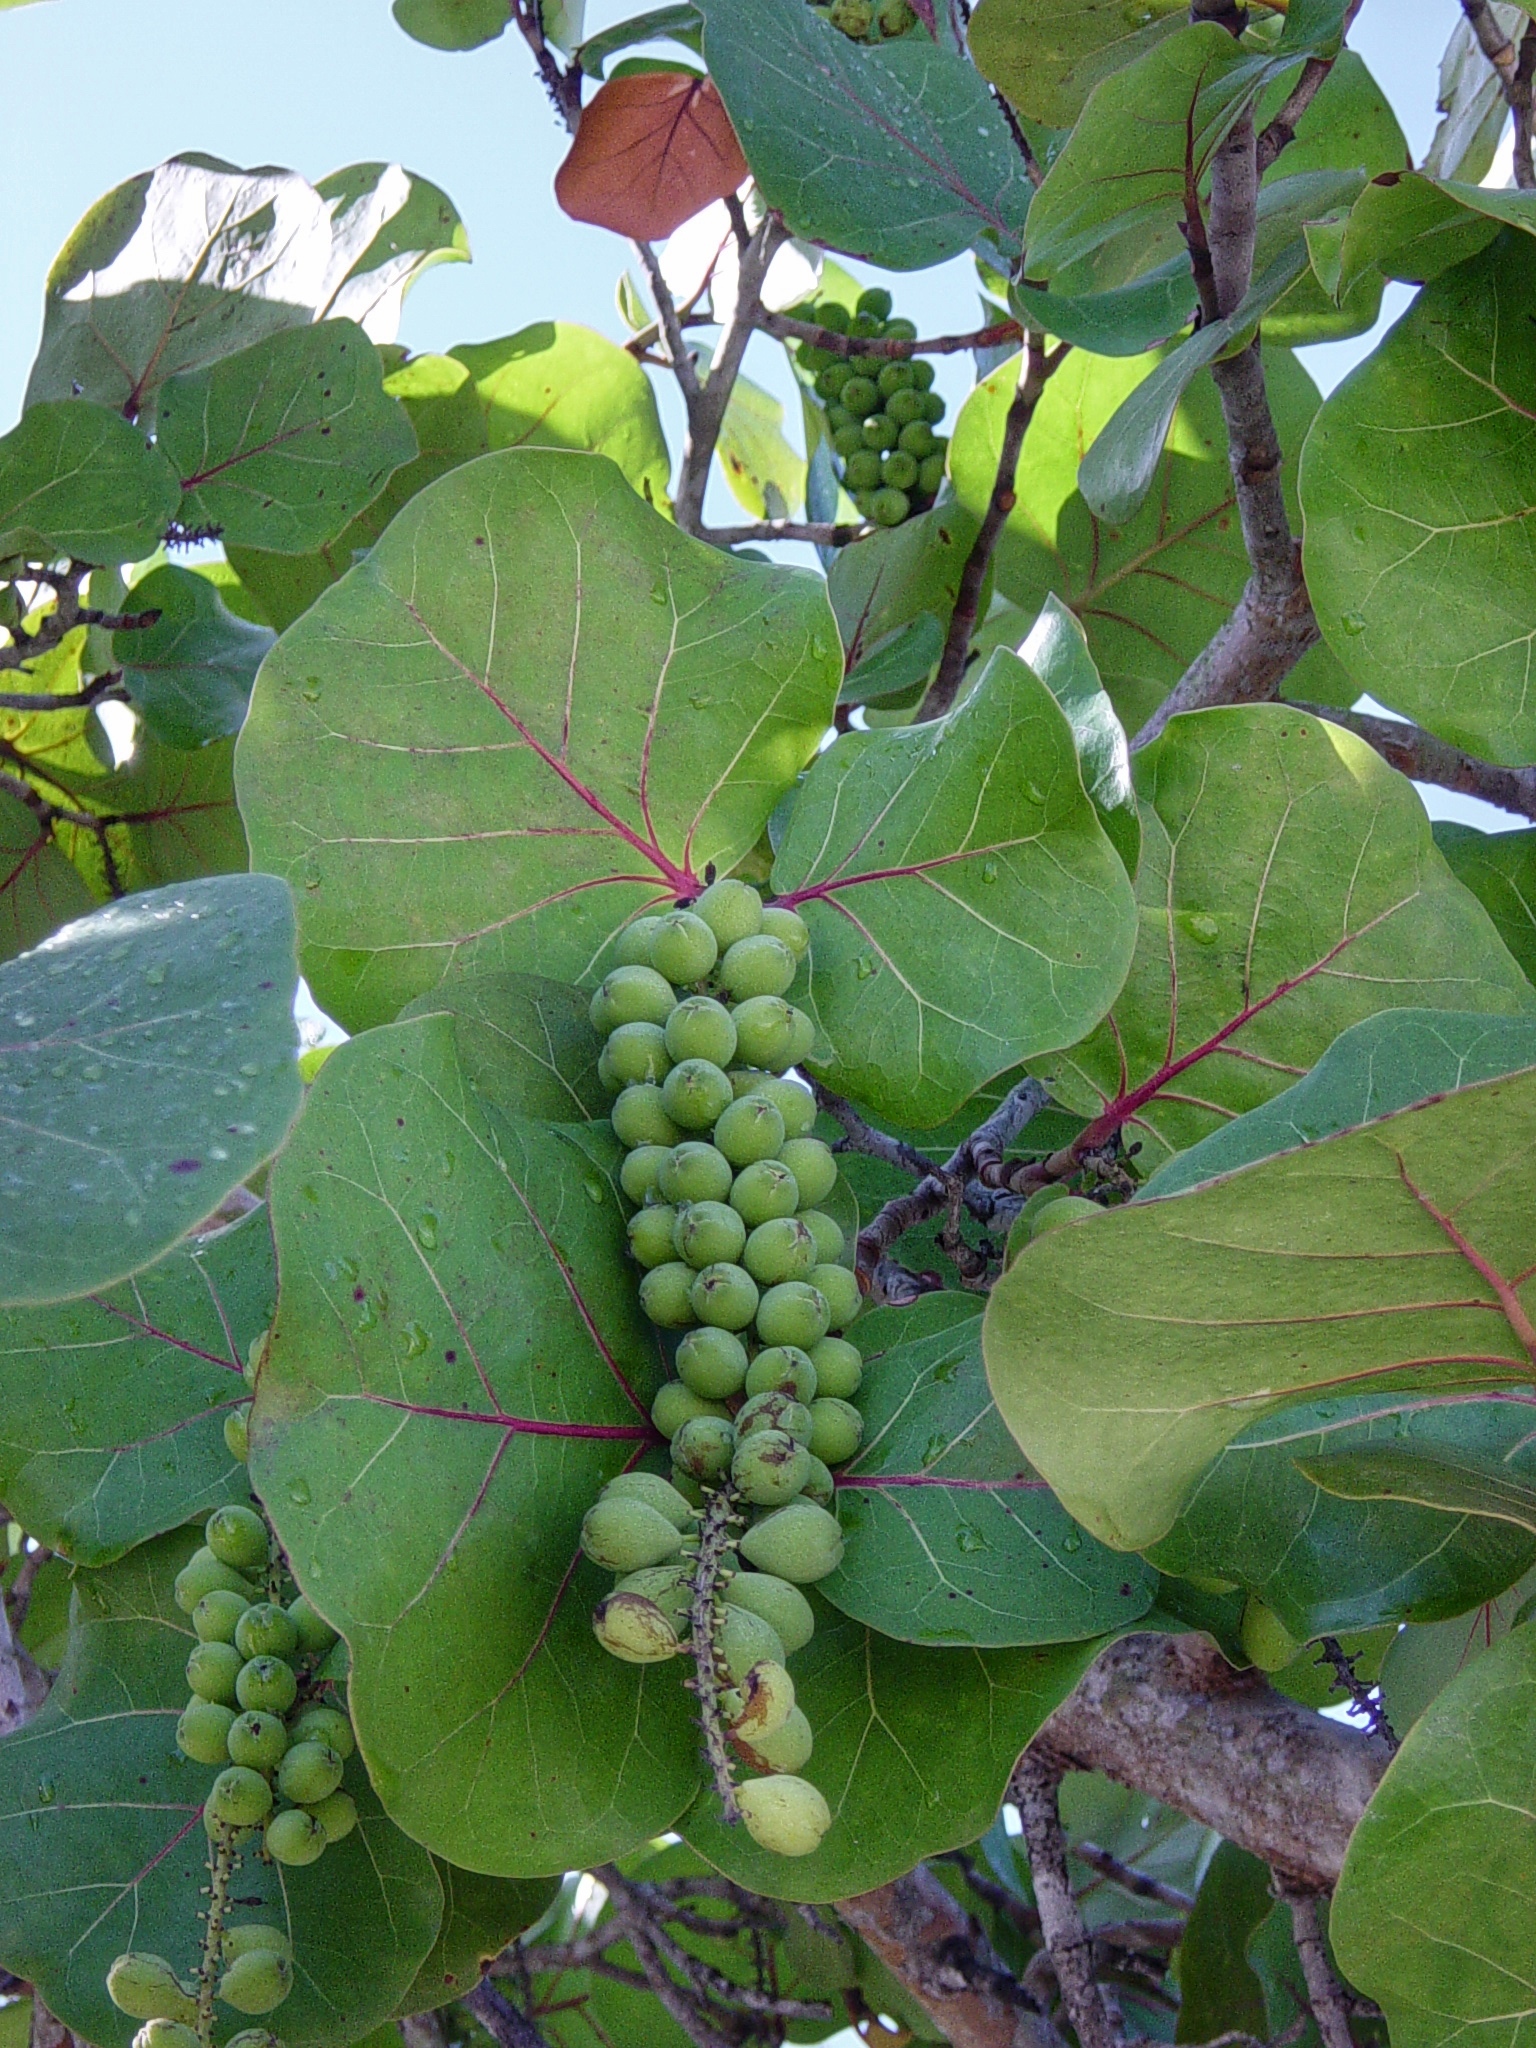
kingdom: Plantae
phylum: Tracheophyta
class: Magnoliopsida
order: Caryophyllales
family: Polygonaceae
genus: Coccoloba
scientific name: Coccoloba uvifera
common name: Seagrape
